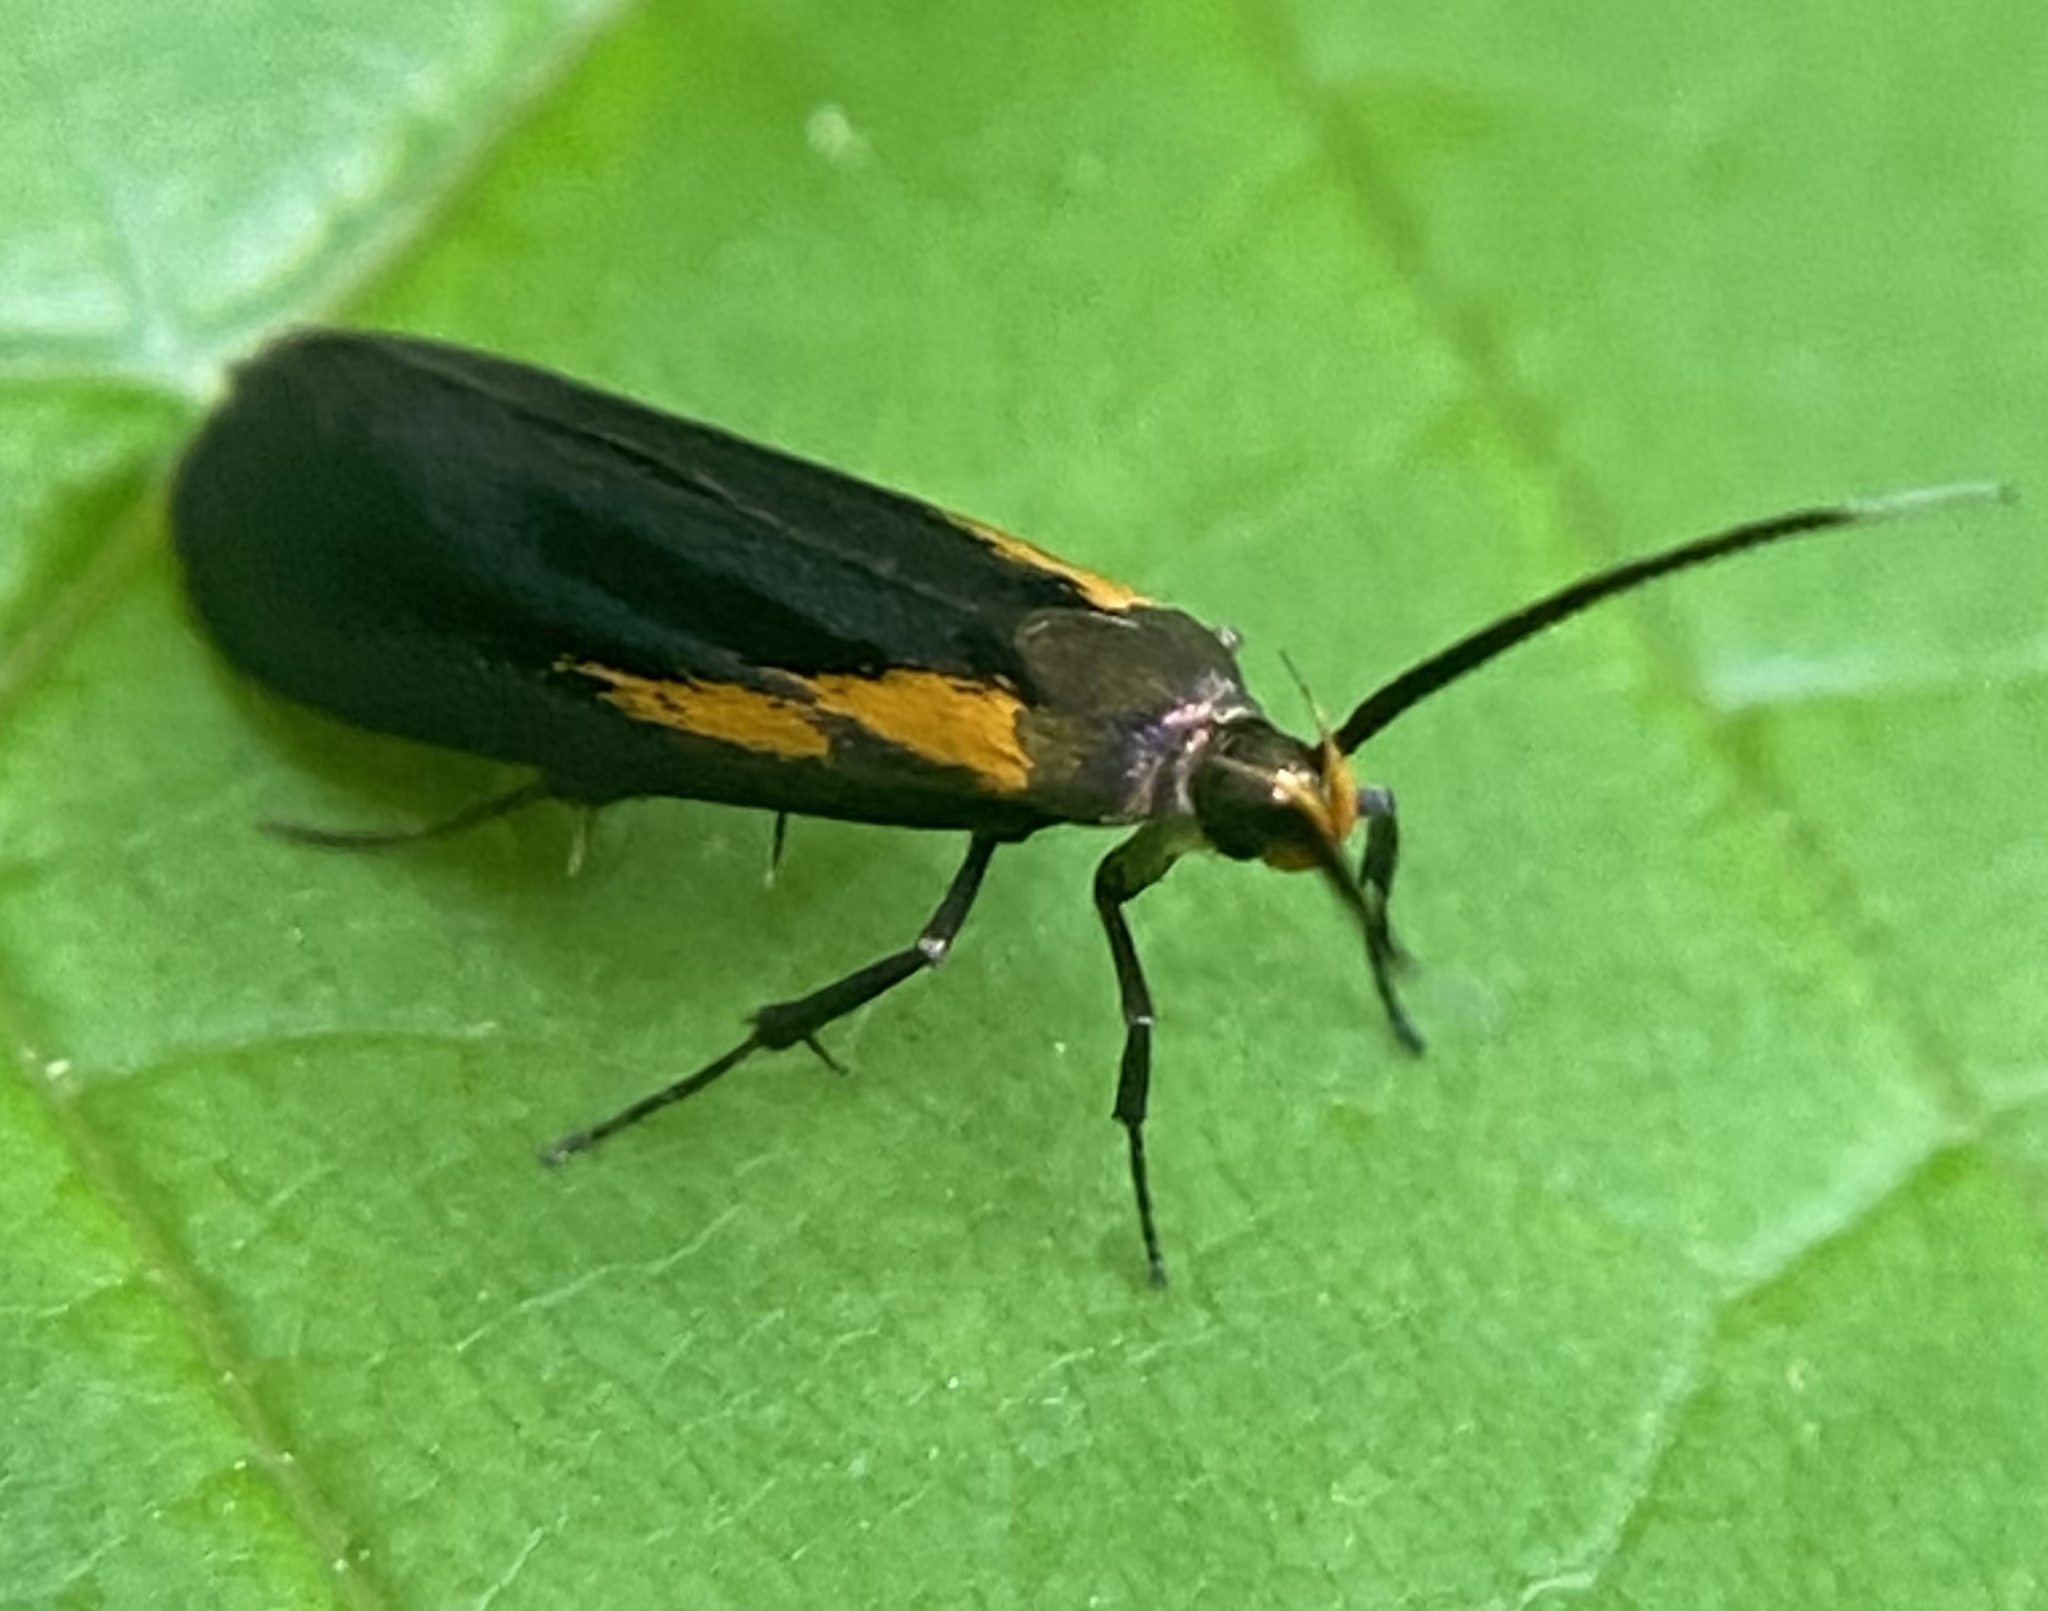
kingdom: Animalia
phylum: Arthropoda
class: Insecta
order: Lepidoptera
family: Oecophoridae
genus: Mathildana
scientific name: Mathildana newmanella
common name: Newman's mathildana moth
